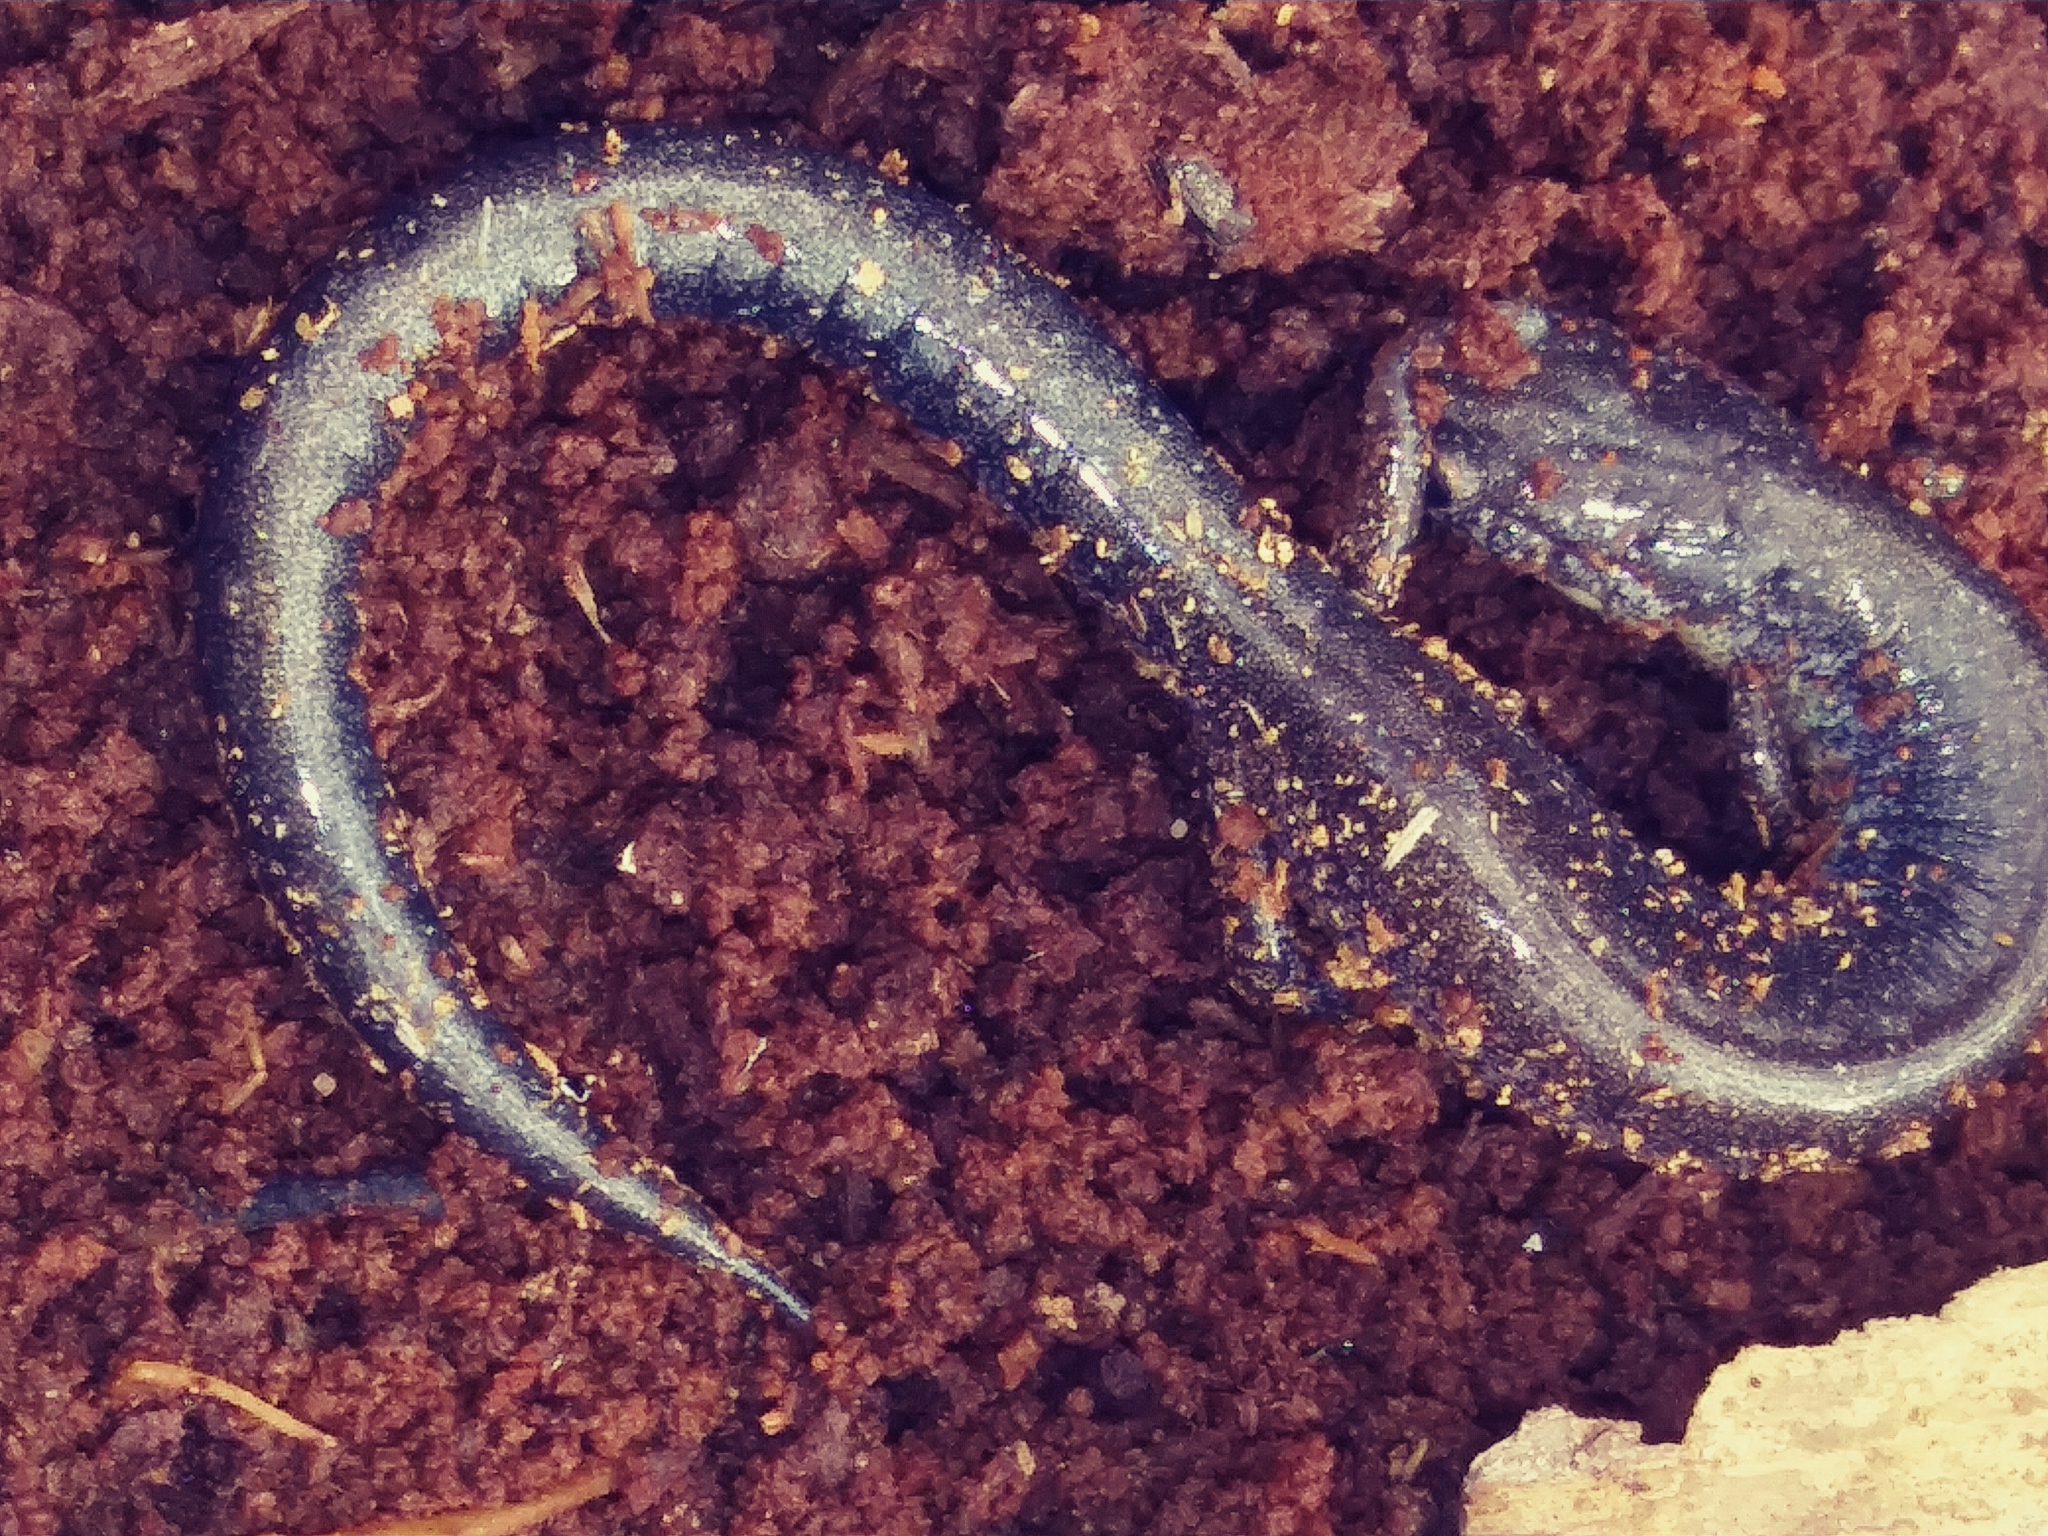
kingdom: Animalia
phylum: Chordata
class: Amphibia
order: Caudata
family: Plethodontidae
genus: Plethodon
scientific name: Plethodon cinereus
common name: Redback salamander
